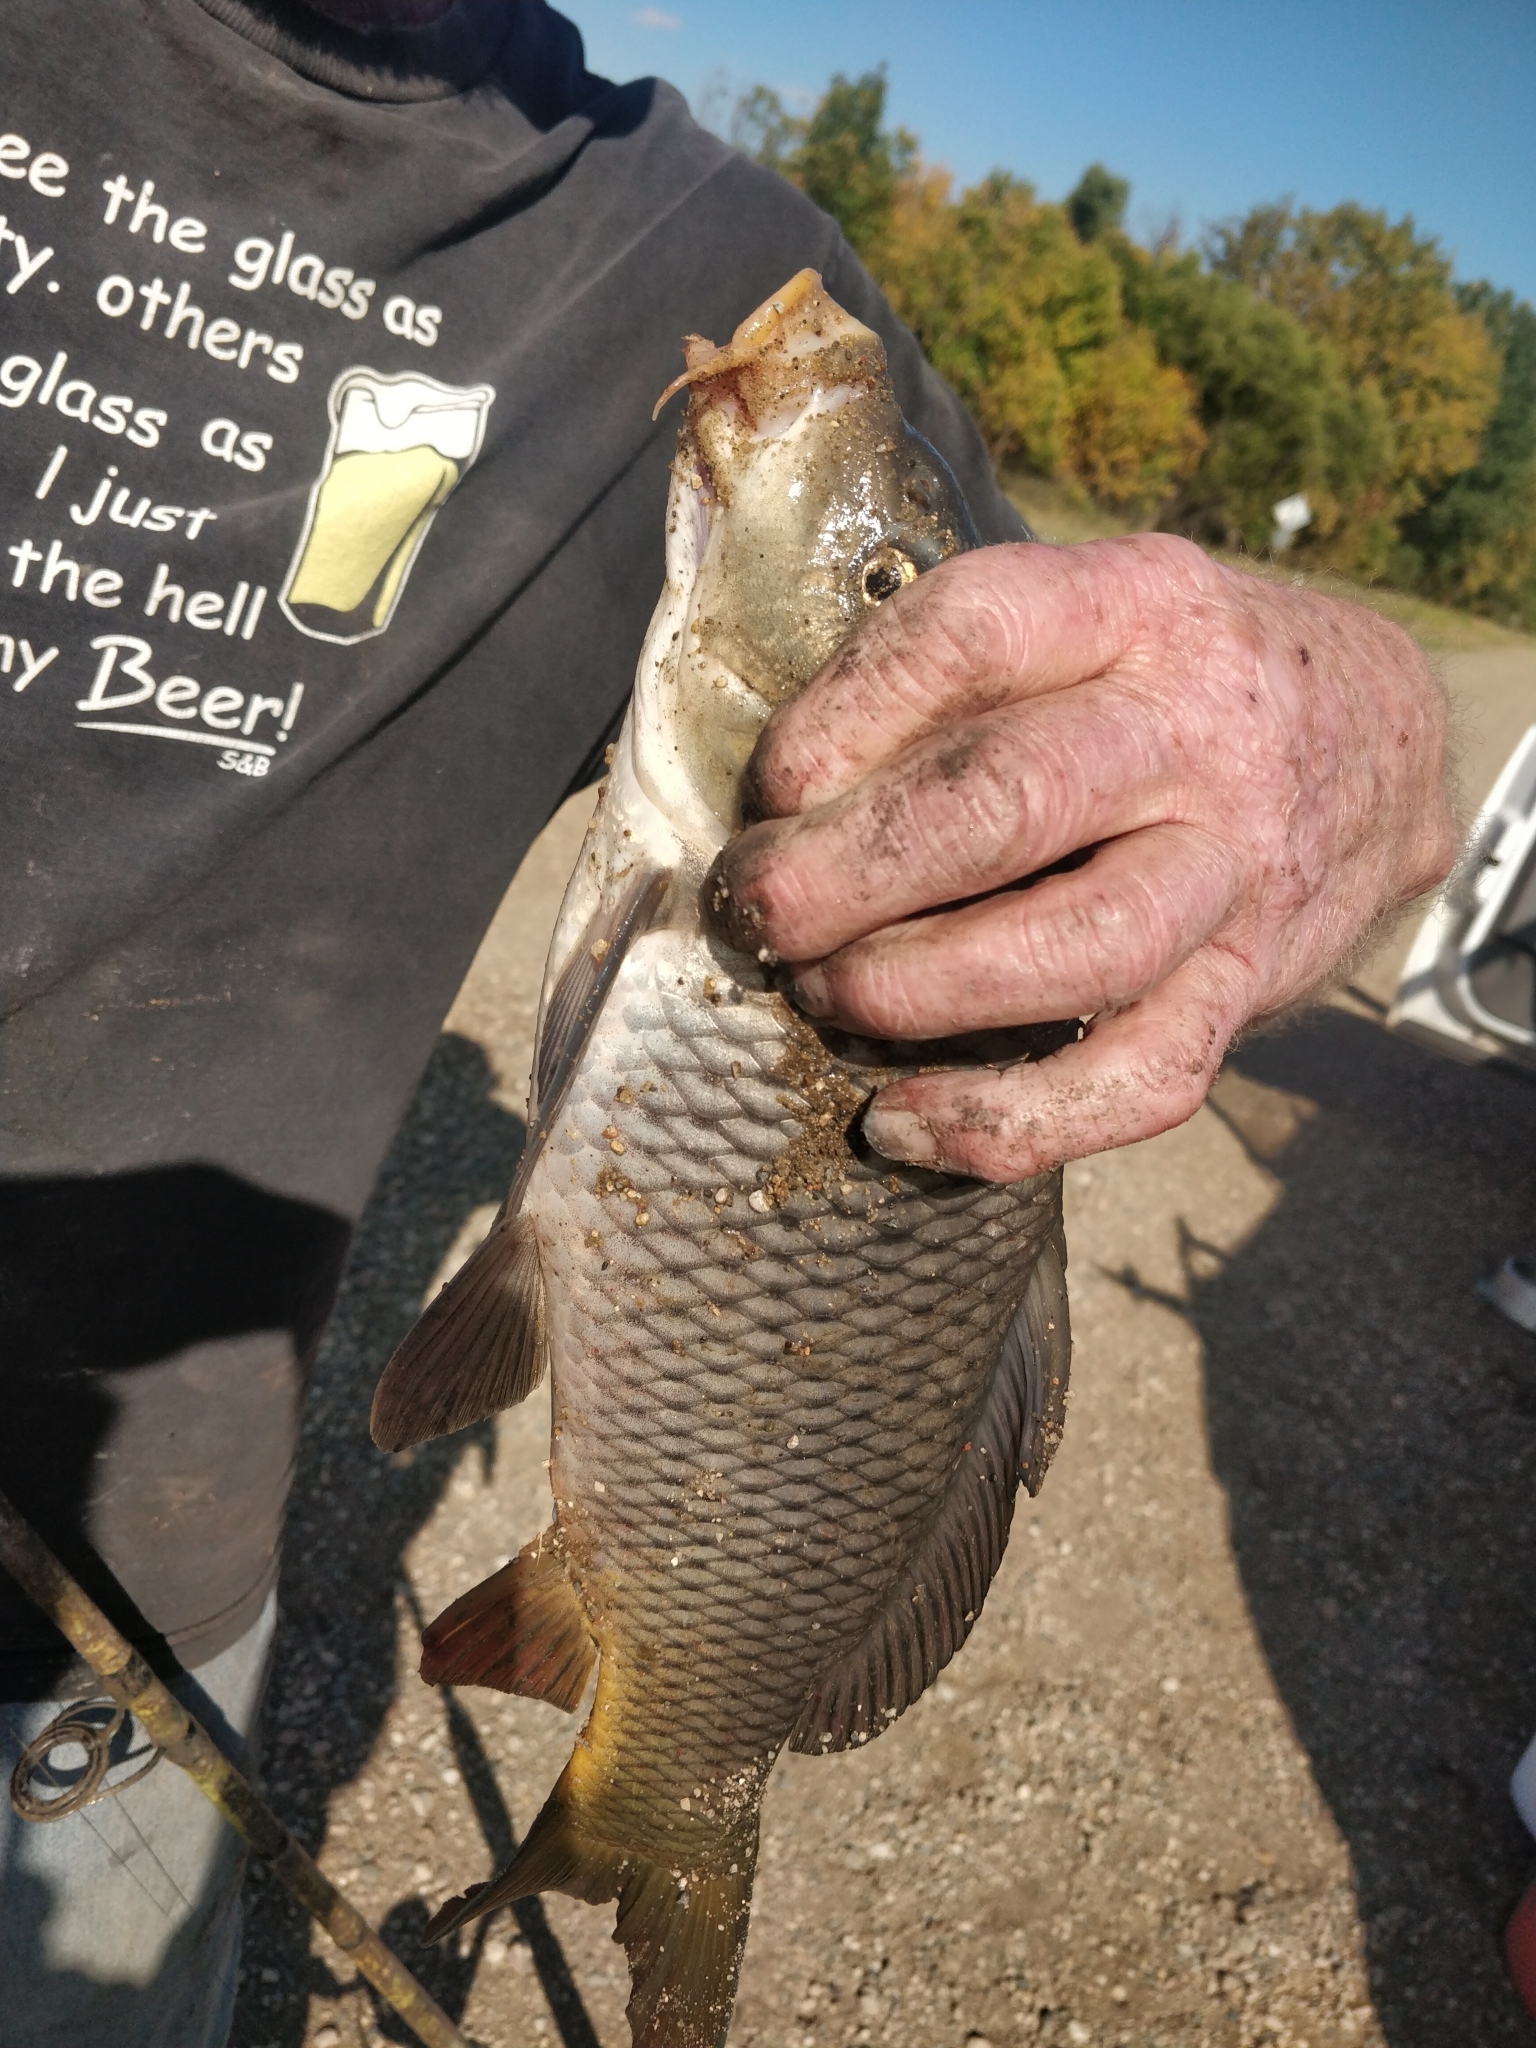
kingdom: Animalia
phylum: Chordata
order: Cypriniformes
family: Cyprinidae
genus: Cyprinus
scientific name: Cyprinus carpio
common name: Common carp
